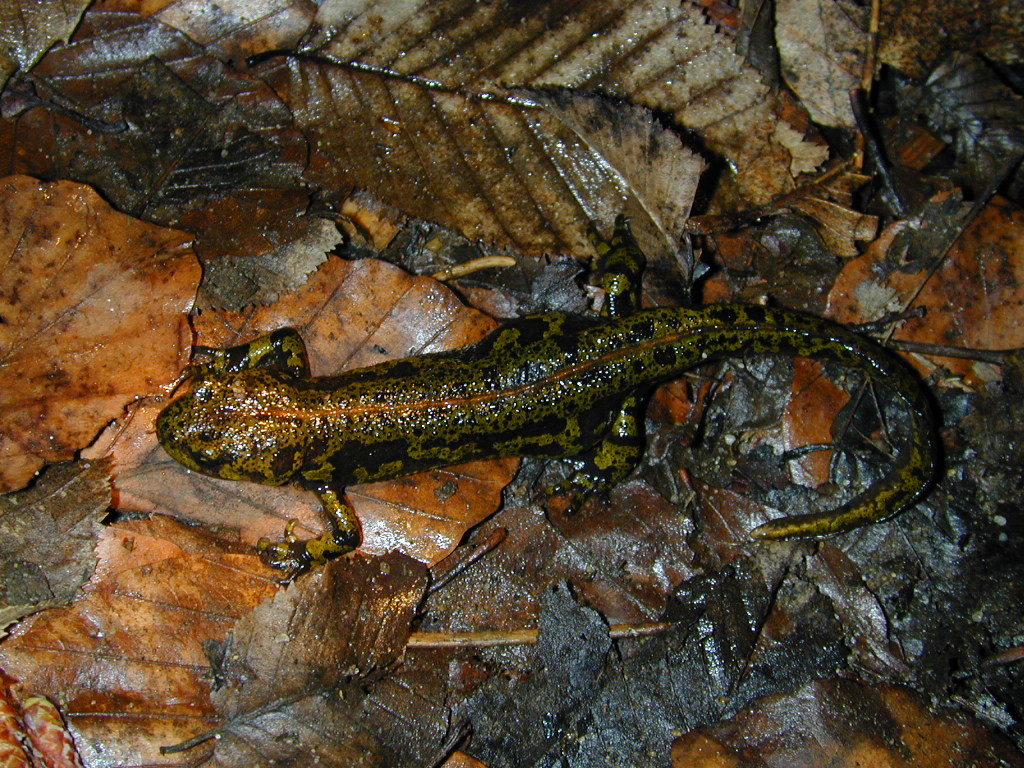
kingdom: Animalia
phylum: Chordata
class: Amphibia
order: Caudata
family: Salamandridae
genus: Triturus
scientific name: Triturus marmoratus
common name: Marbled newt
